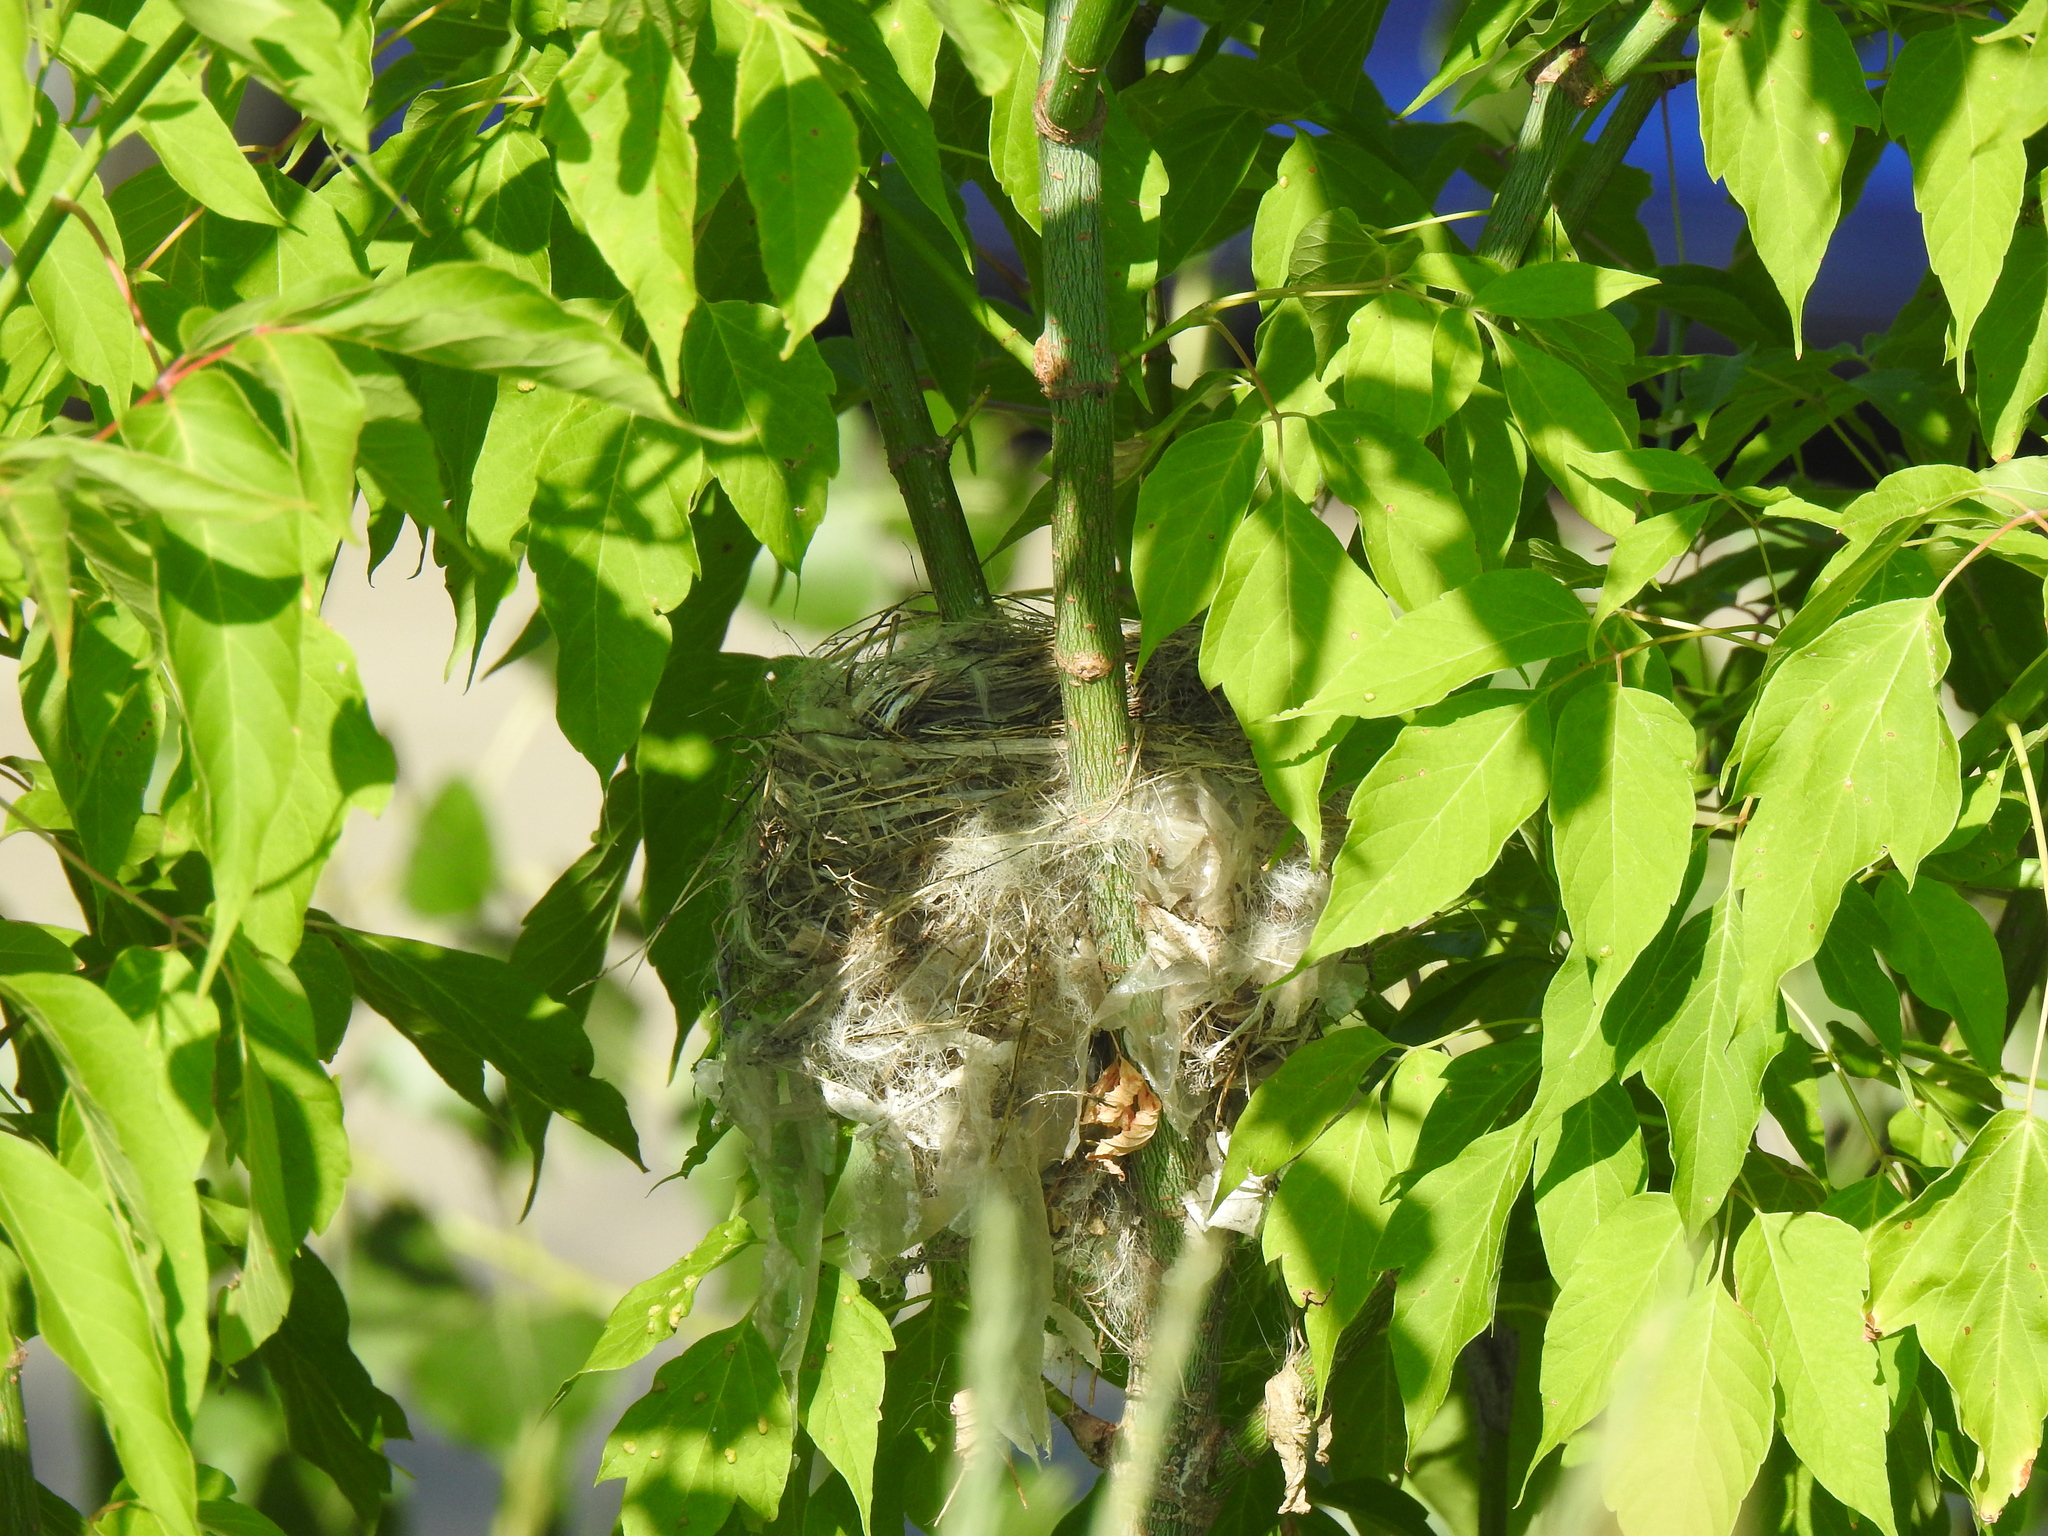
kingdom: Animalia
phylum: Chordata
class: Aves
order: Passeriformes
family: Cardinalidae
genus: Passerina
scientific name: Passerina caerulea
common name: Blue grosbeak
